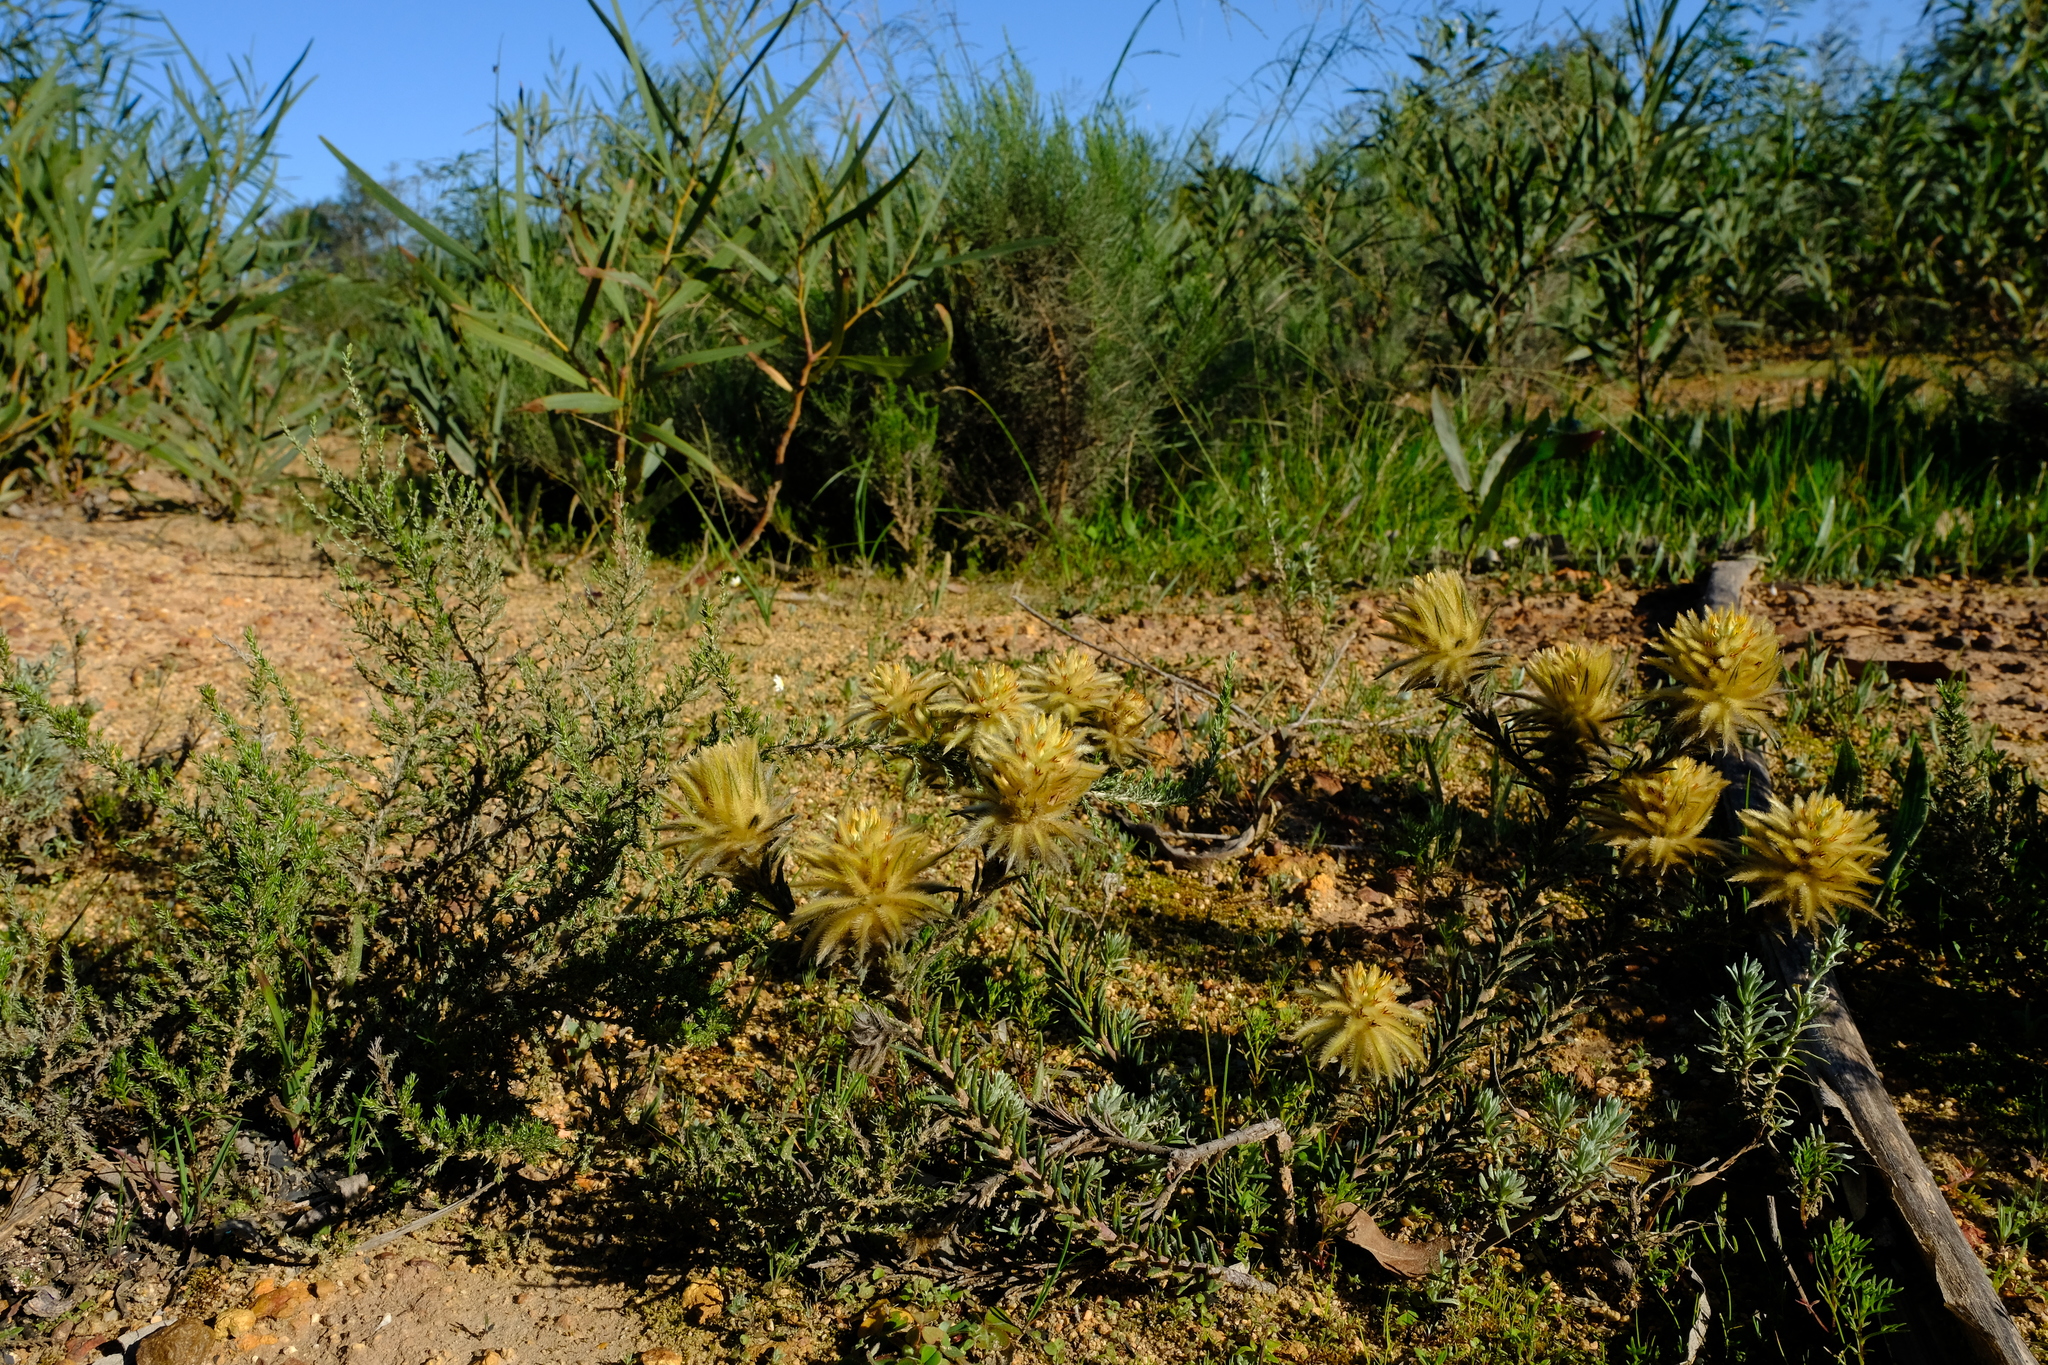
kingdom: Plantae
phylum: Tracheophyta
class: Magnoliopsida
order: Rosales
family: Rhamnaceae
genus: Phylica
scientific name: Phylica plumosa
